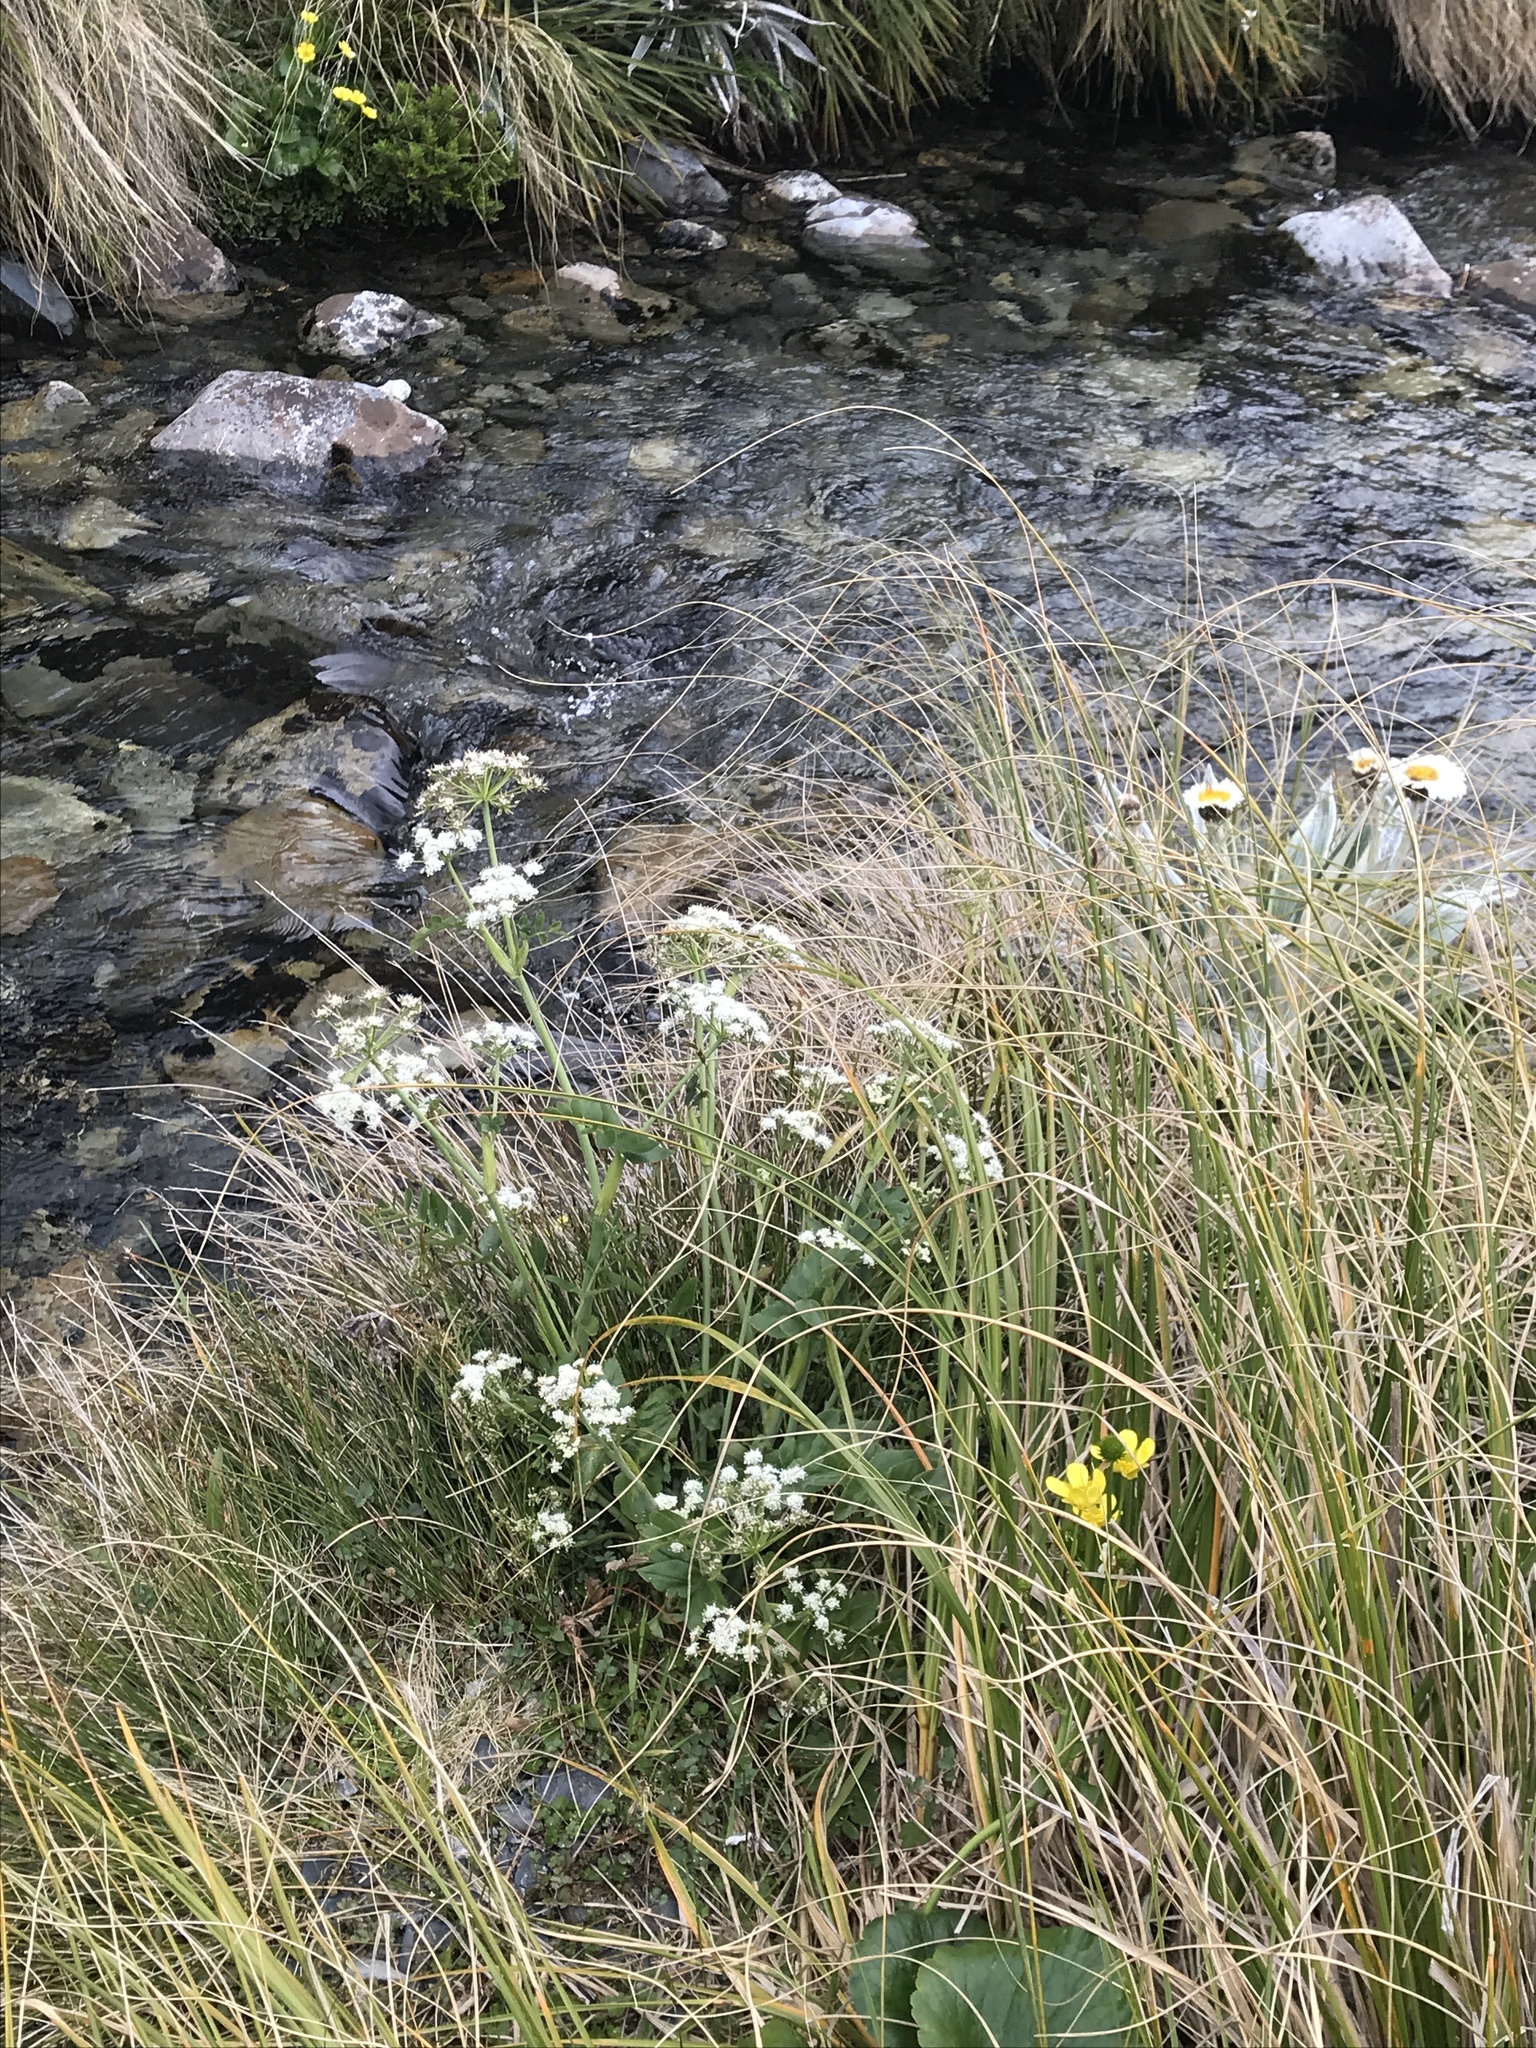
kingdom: Plantae
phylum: Tracheophyta
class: Magnoliopsida
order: Apiales
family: Apiaceae
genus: Gingidia
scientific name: Gingidia montana
